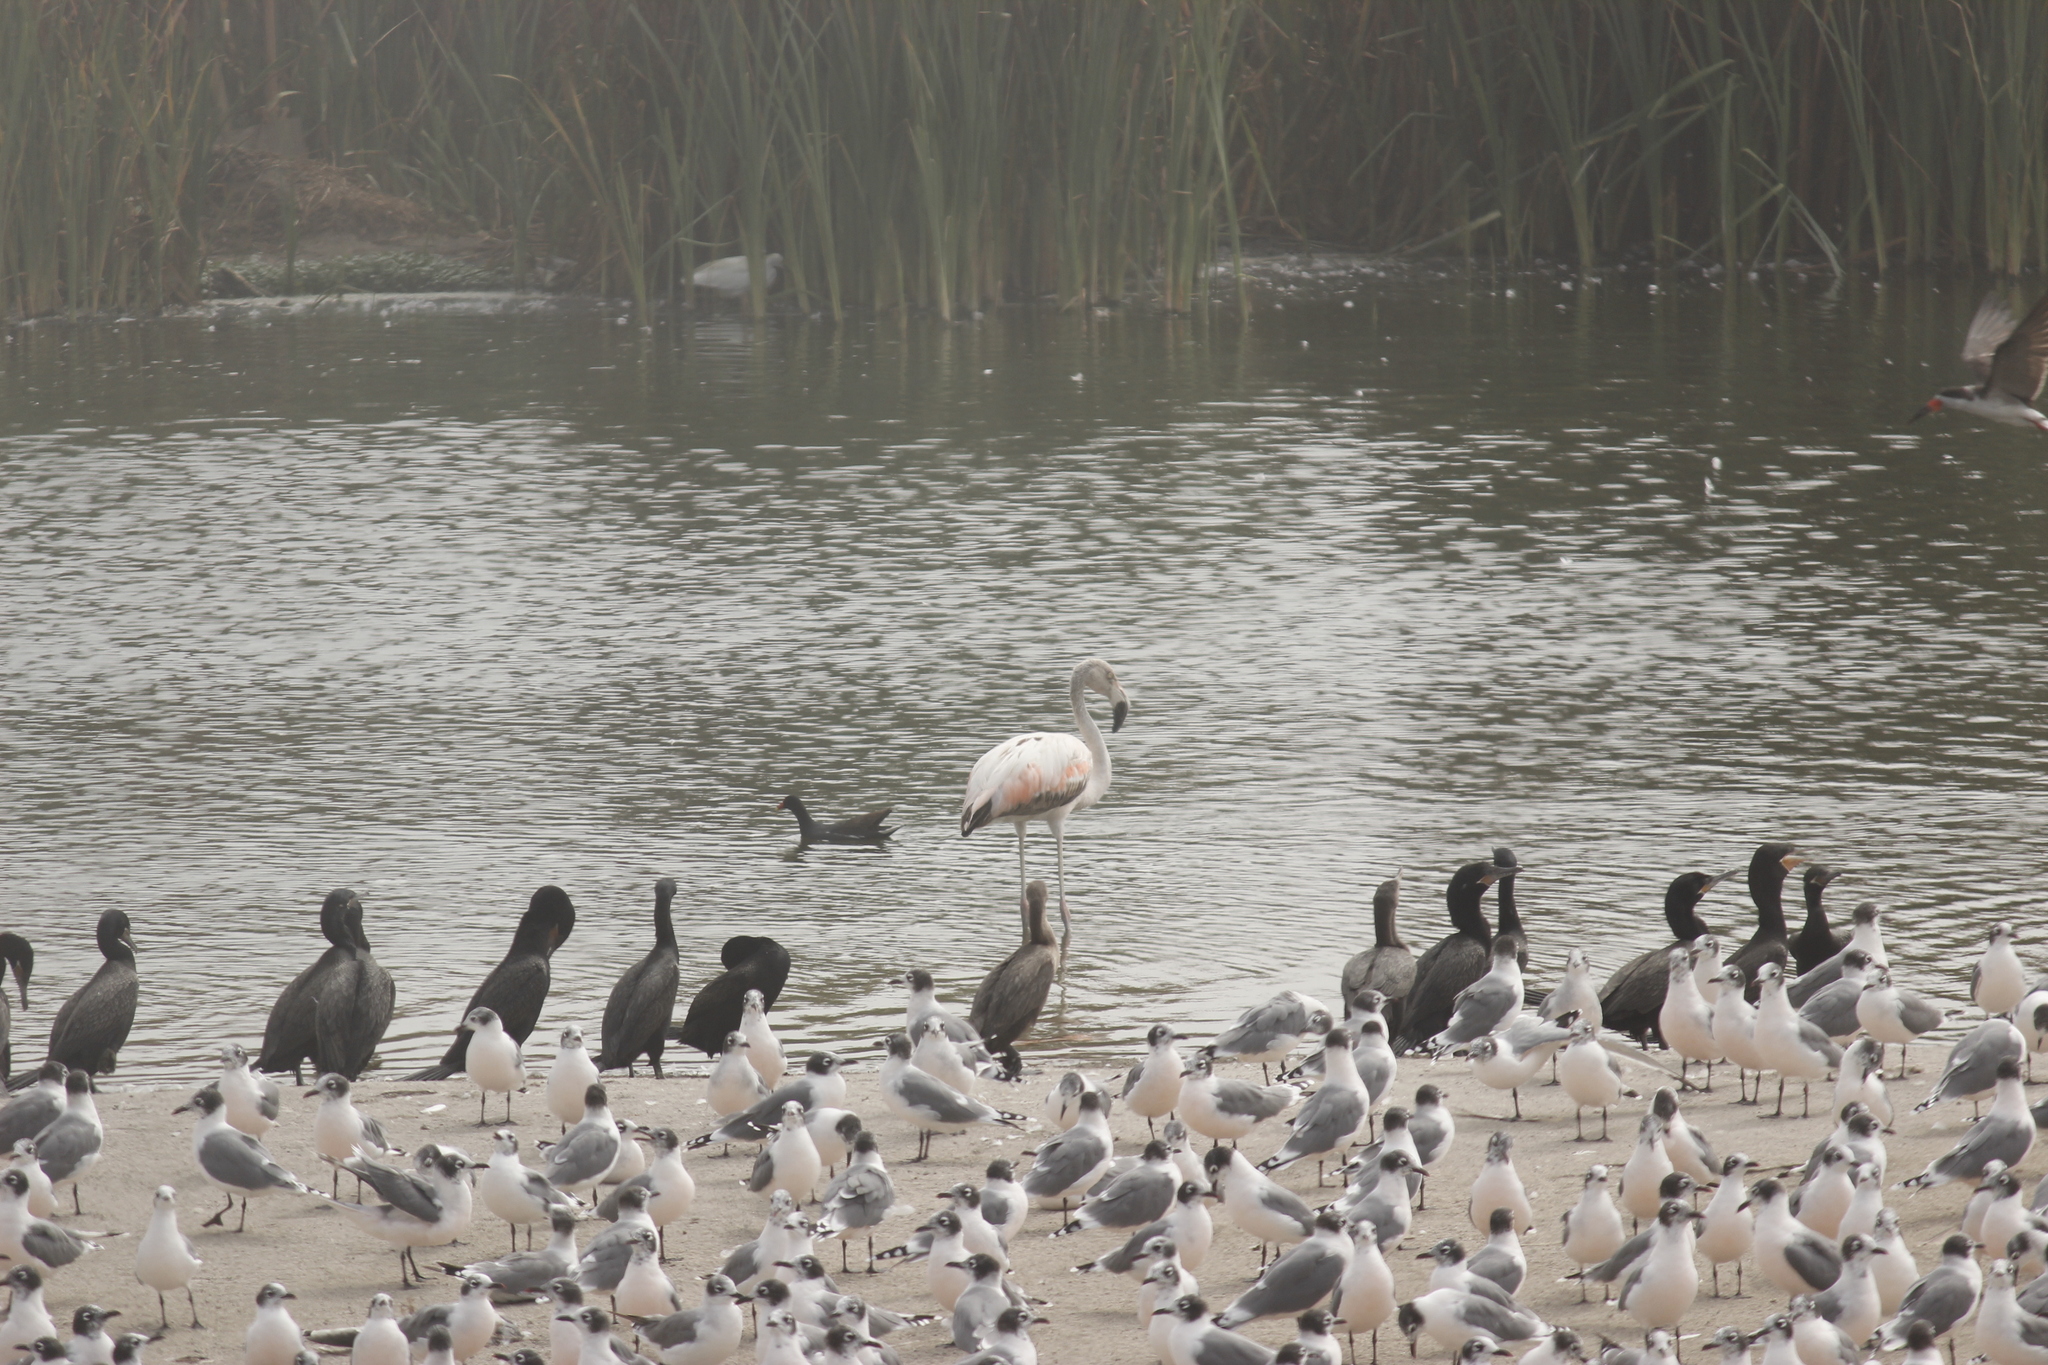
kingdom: Animalia
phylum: Chordata
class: Aves
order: Phoenicopteriformes
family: Phoenicopteridae
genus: Phoenicopterus
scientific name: Phoenicopterus chilensis
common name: Chilean flamingo
